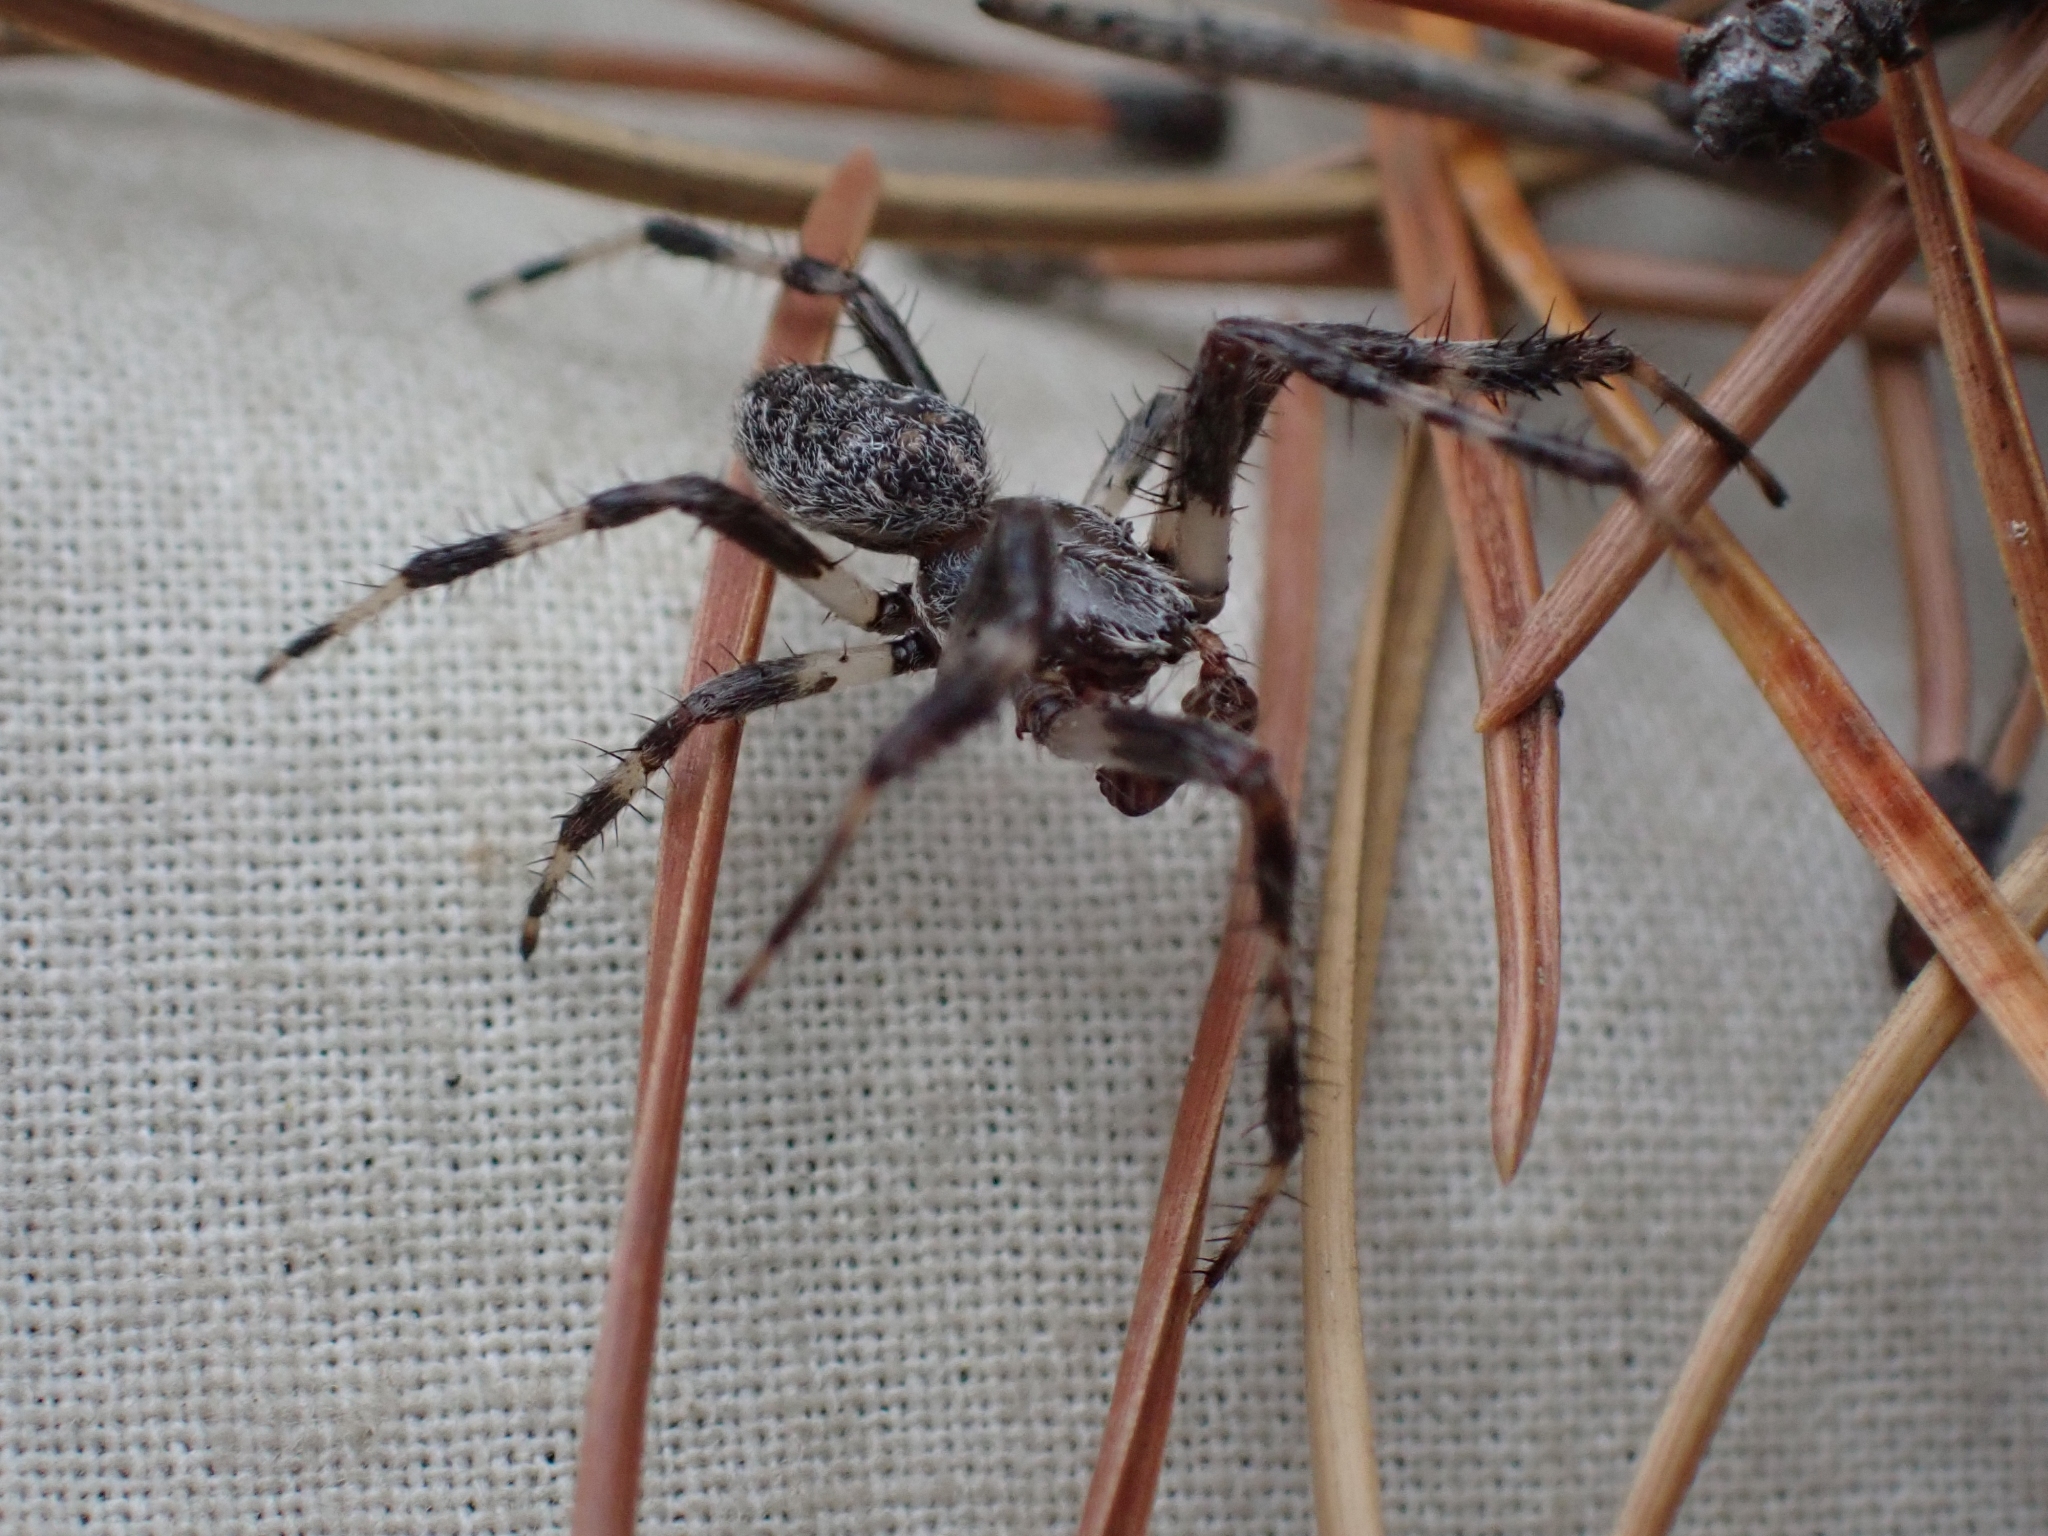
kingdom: Animalia
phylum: Arthropoda
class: Arachnida
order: Araneae
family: Araneidae
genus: Araneus
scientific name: Araneus marmoreus
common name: Marbled orbweaver
